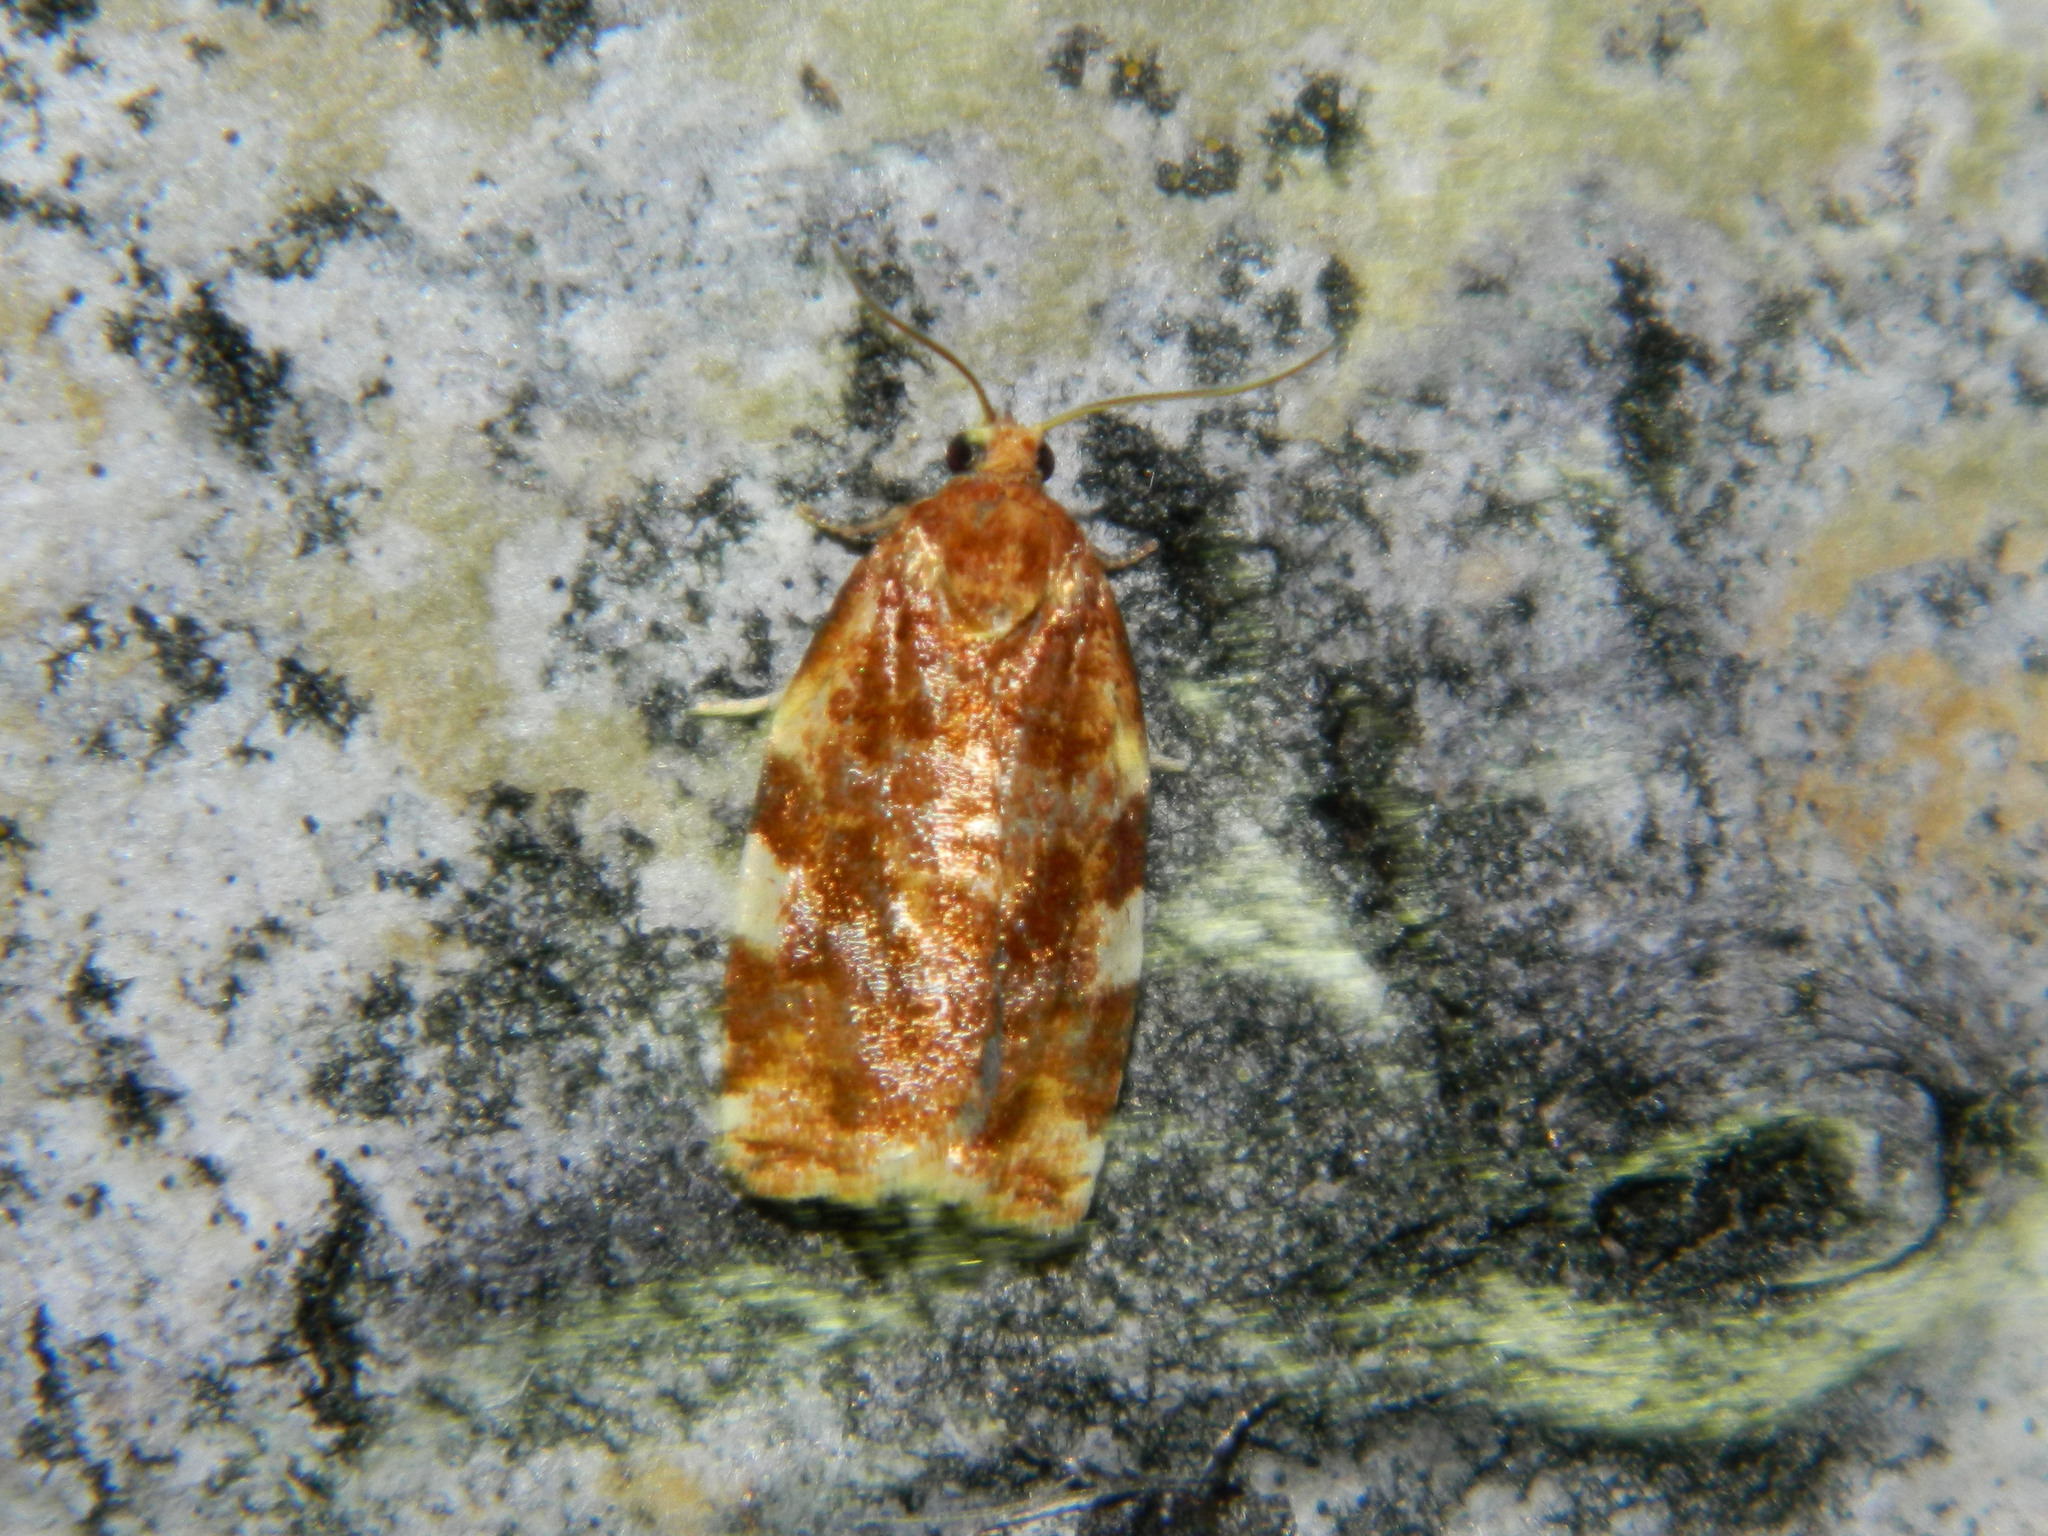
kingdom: Animalia
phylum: Arthropoda
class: Insecta
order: Lepidoptera
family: Tortricidae
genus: Archips
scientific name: Archips argyrospila
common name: Fruit-tree leafroller moth
